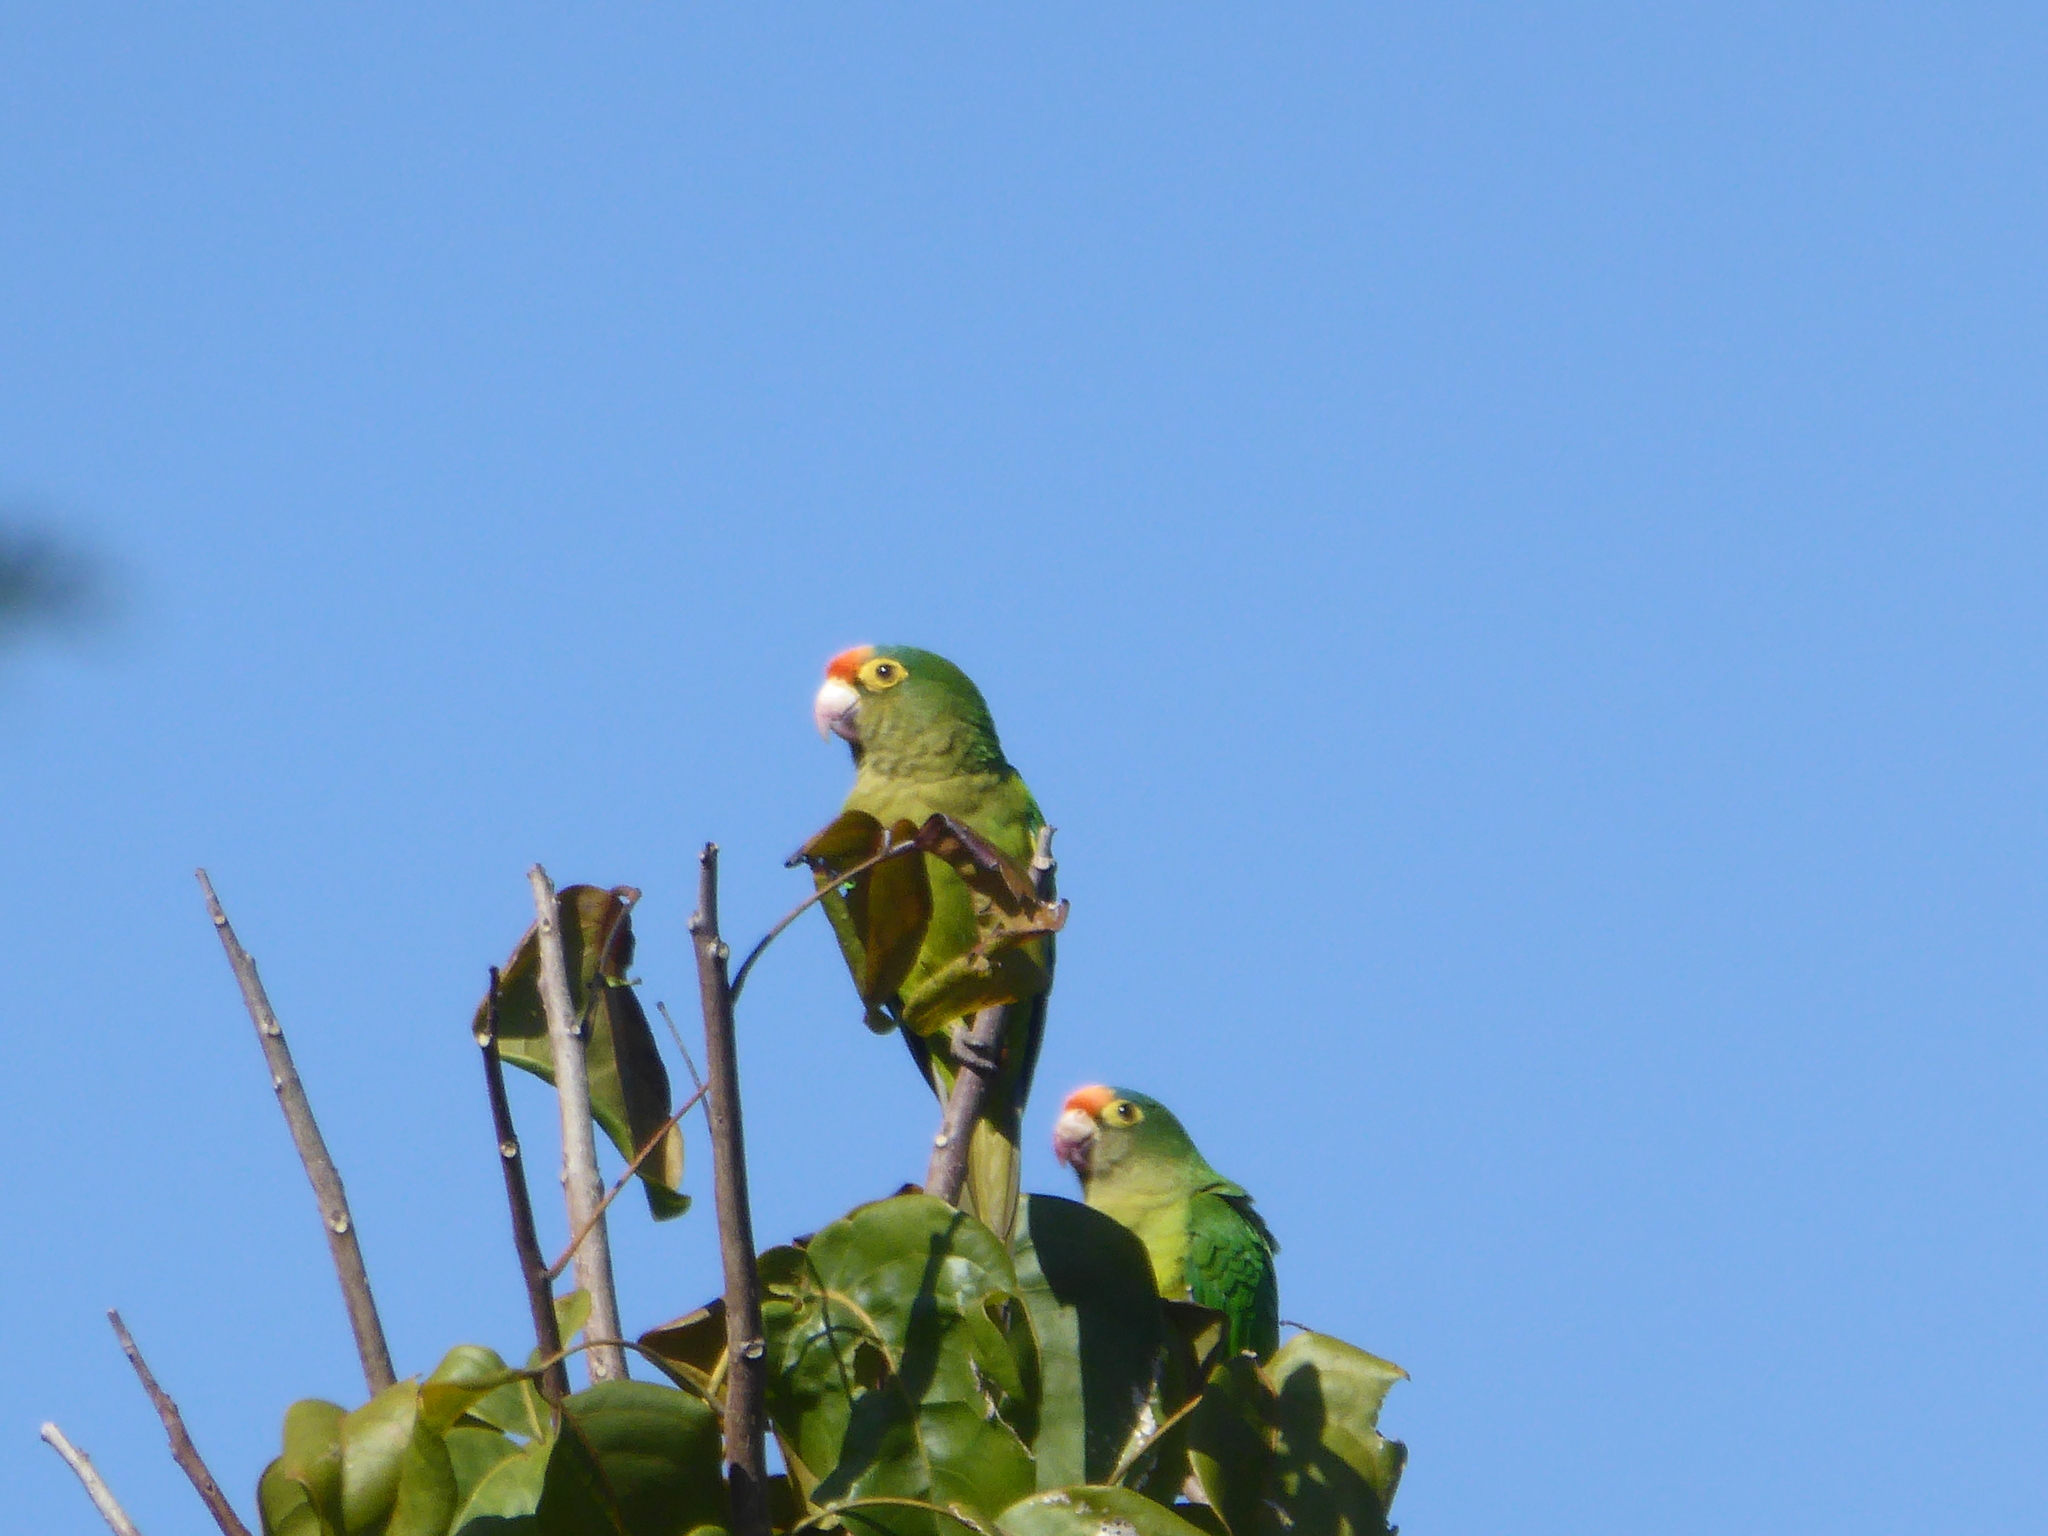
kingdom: Animalia
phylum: Chordata
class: Aves
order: Psittaciformes
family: Psittacidae
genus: Aratinga
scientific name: Aratinga canicularis
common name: Orange-fronted parakeet
